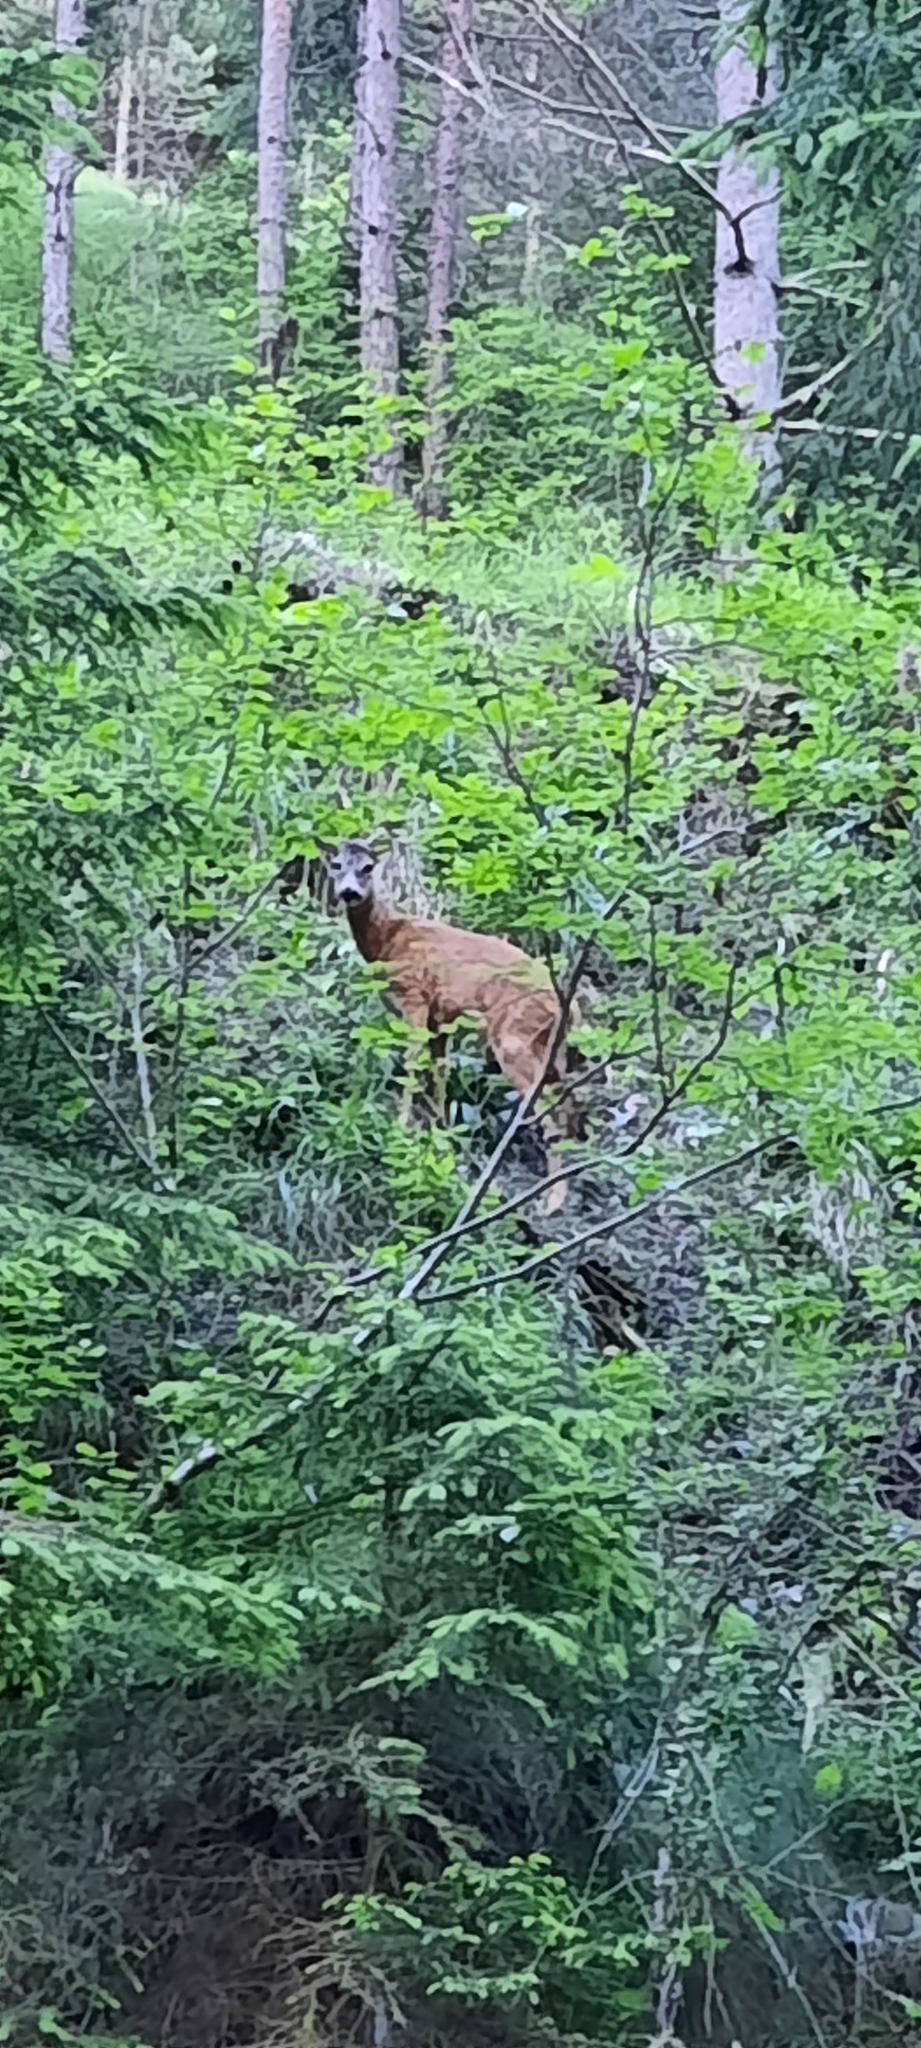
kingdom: Animalia
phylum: Chordata
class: Mammalia
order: Artiodactyla
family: Cervidae
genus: Capreolus
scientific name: Capreolus capreolus
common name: Western roe deer
